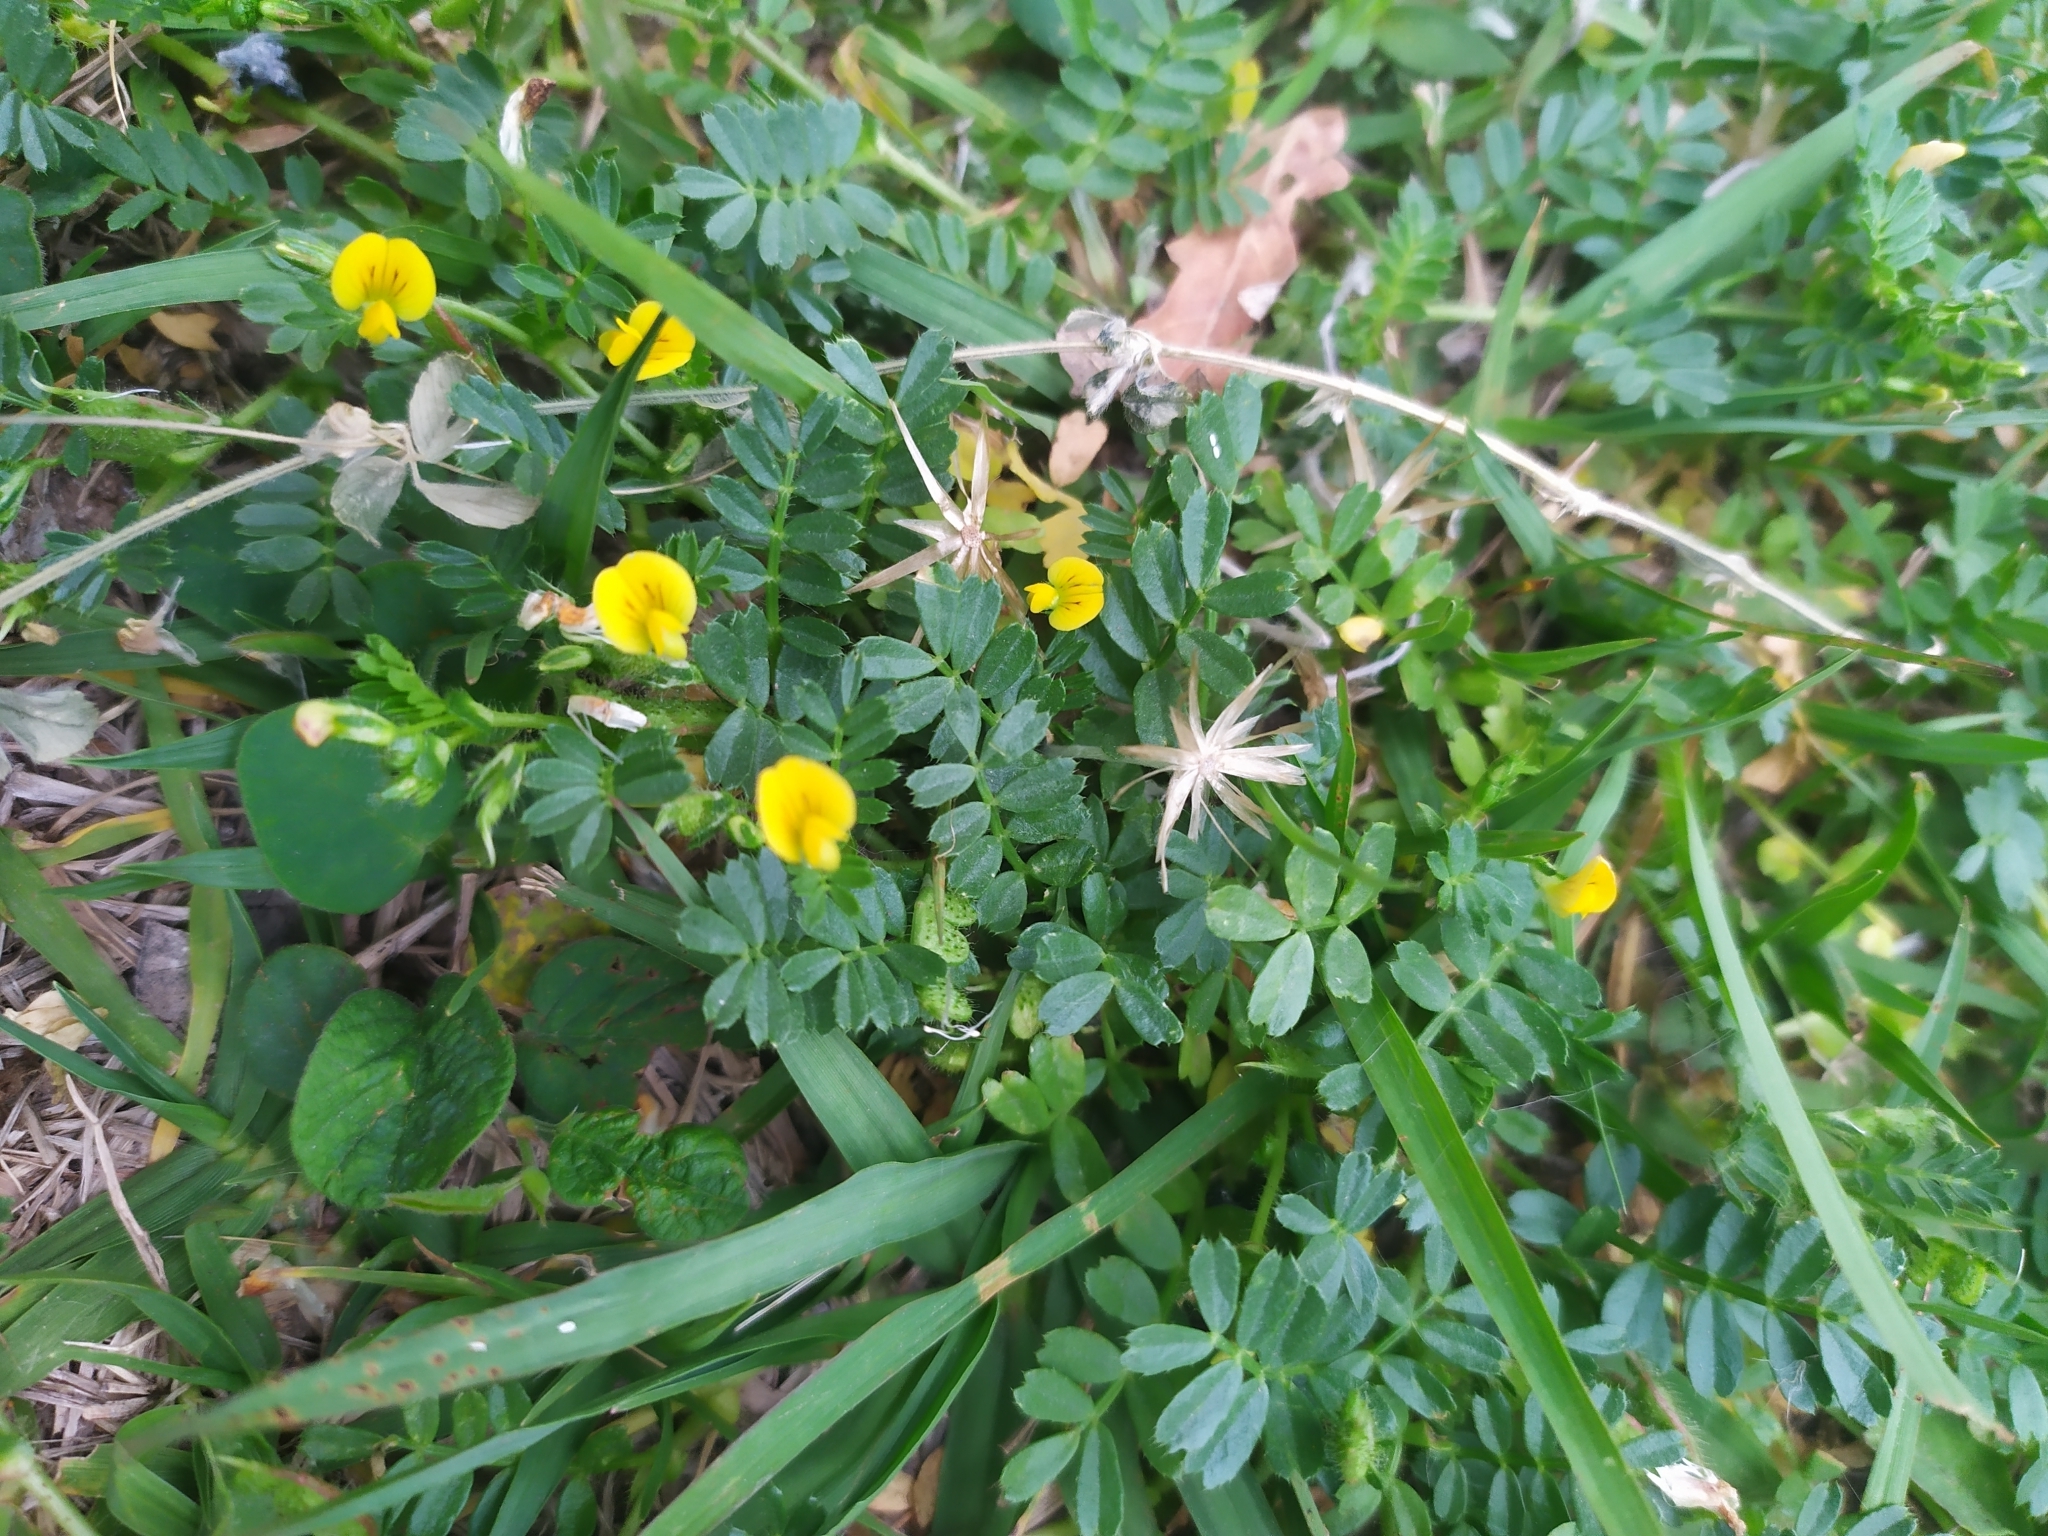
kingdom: Plantae
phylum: Tracheophyta
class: Magnoliopsida
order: Fabales
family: Fabaceae
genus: Adesmia
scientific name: Adesmia securigerifolia
